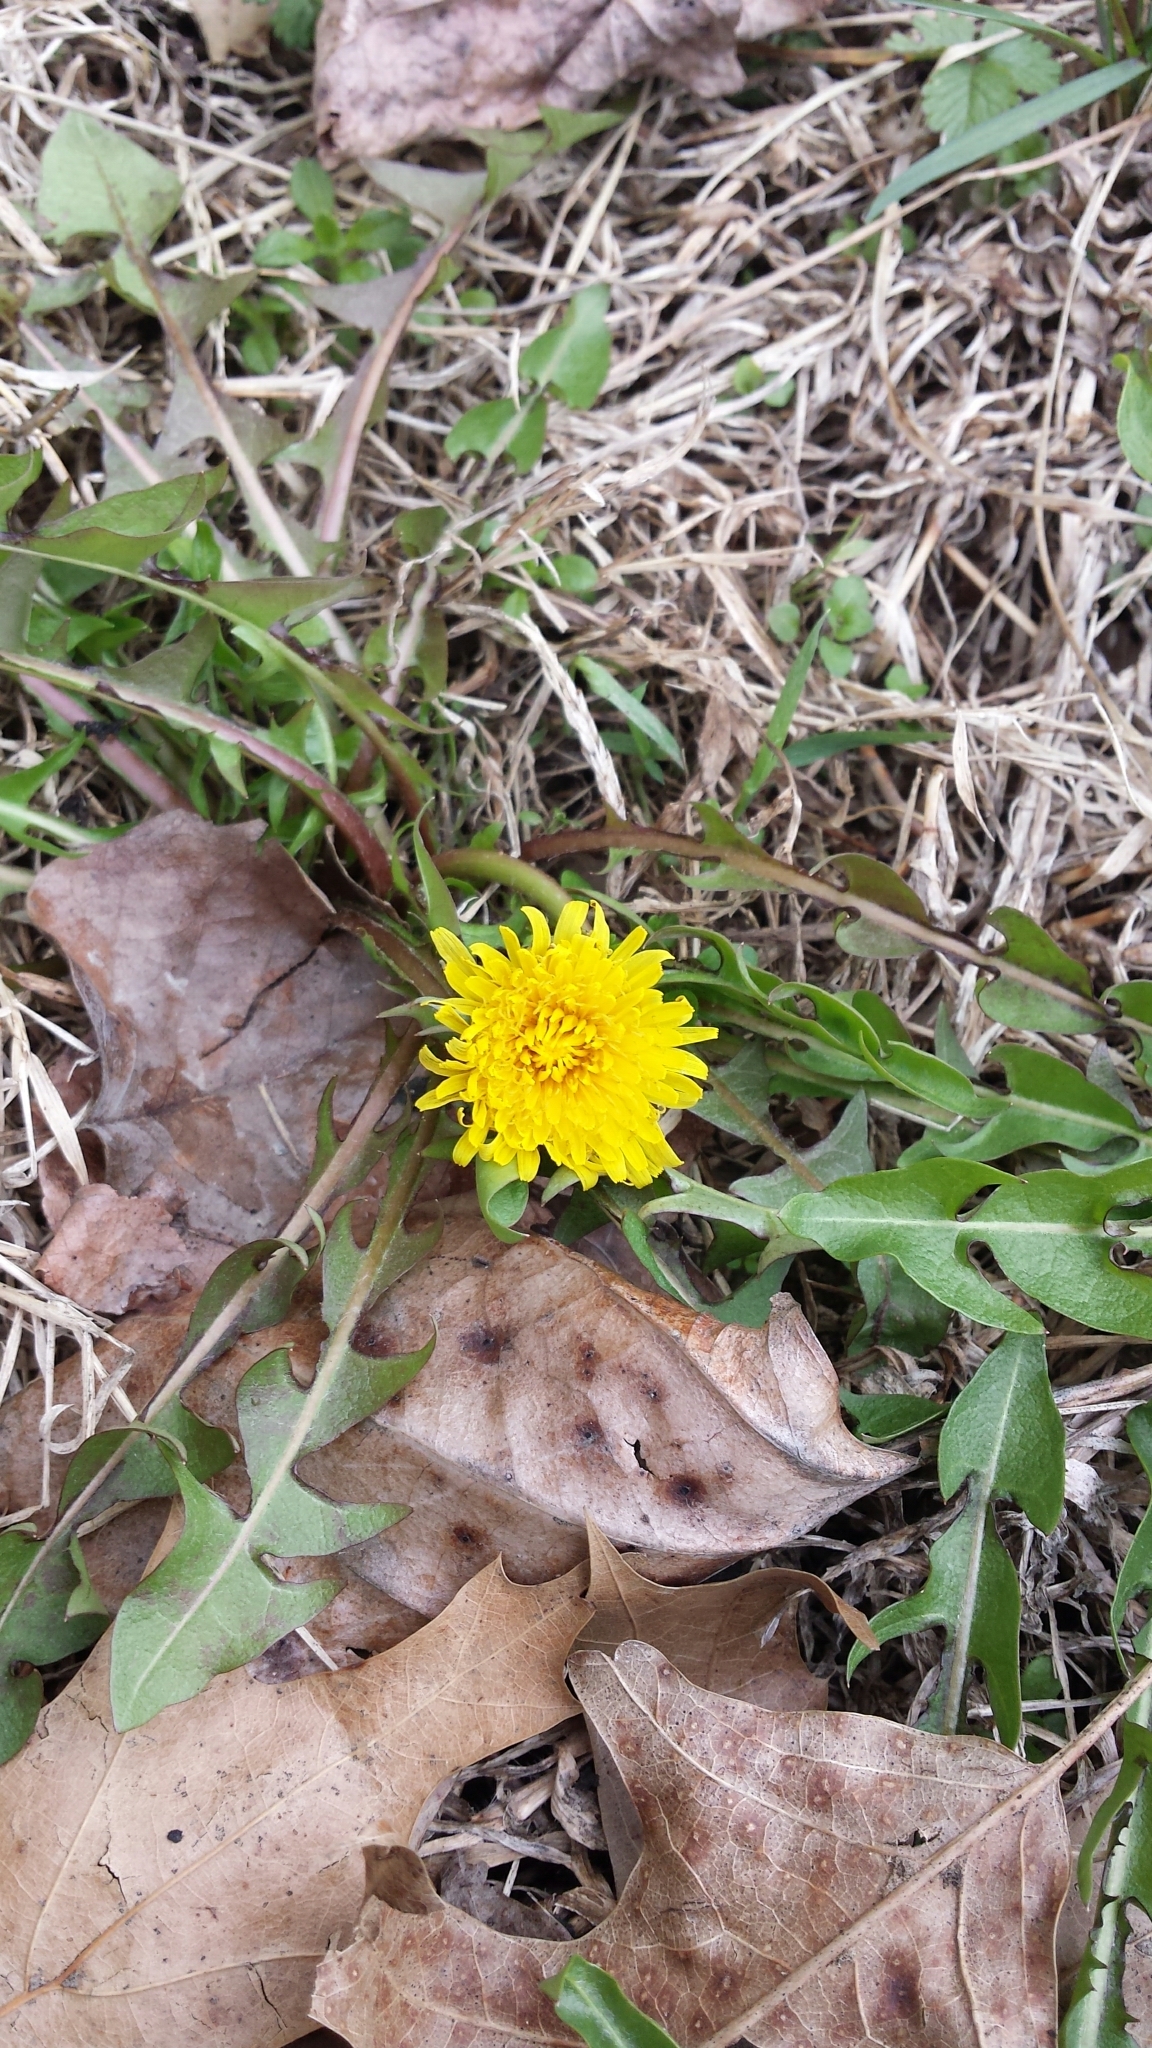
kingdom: Plantae
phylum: Tracheophyta
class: Magnoliopsida
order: Asterales
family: Asteraceae
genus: Taraxacum
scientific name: Taraxacum officinale
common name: Common dandelion
